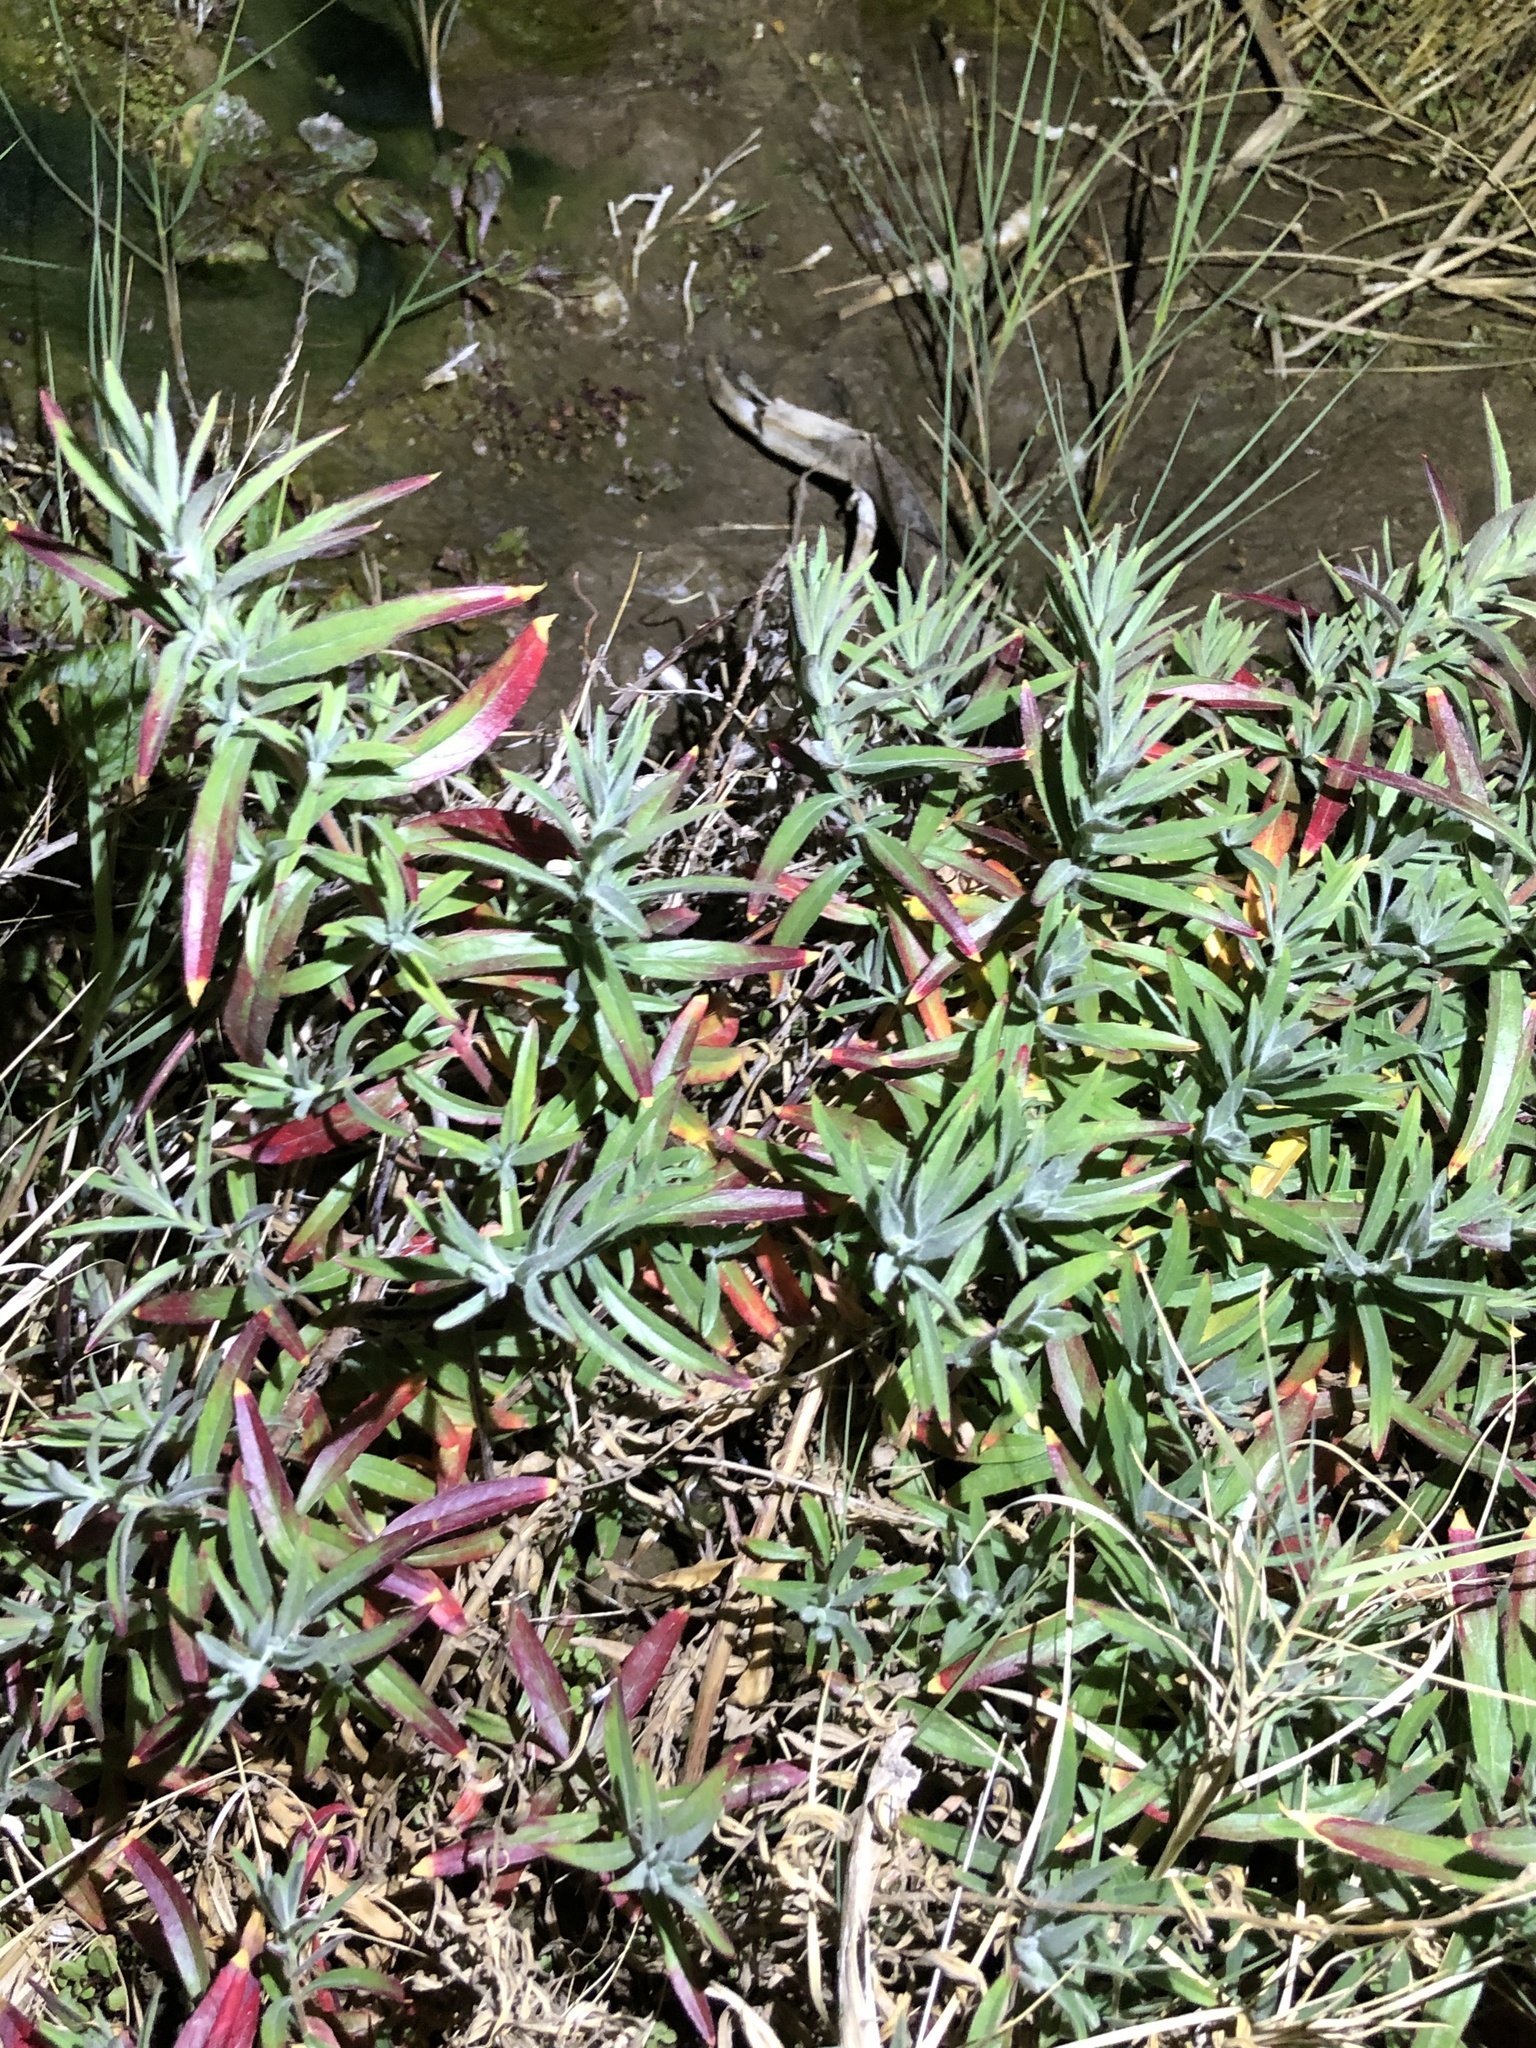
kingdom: Plantae
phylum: Tracheophyta
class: Magnoliopsida
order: Myrtales
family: Onagraceae
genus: Epilobium
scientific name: Epilobium canum
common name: California-fuchsia
